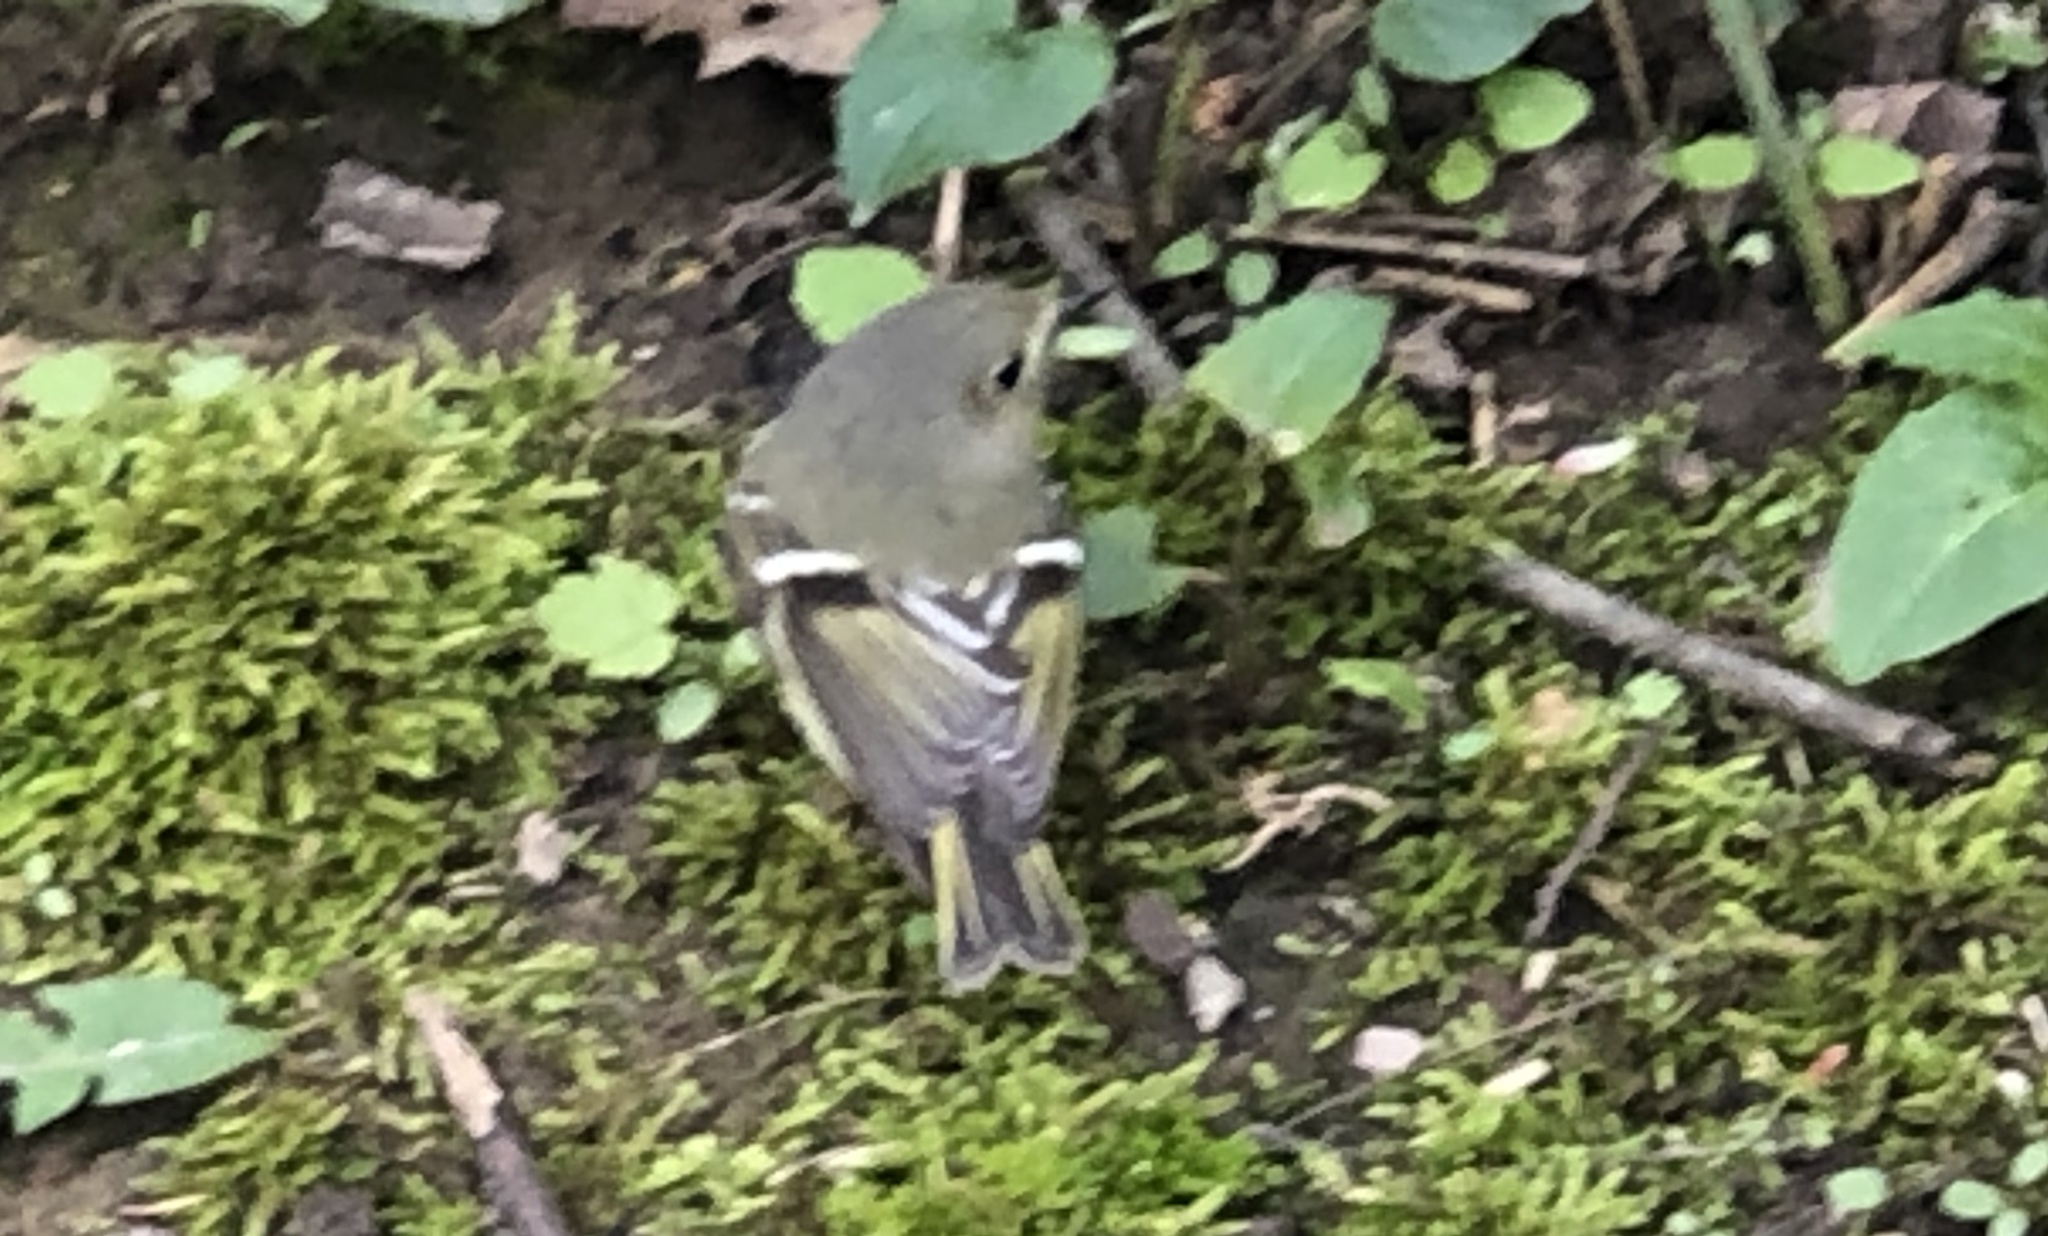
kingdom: Animalia
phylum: Chordata
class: Aves
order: Passeriformes
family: Regulidae
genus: Regulus
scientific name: Regulus calendula
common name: Ruby-crowned kinglet
